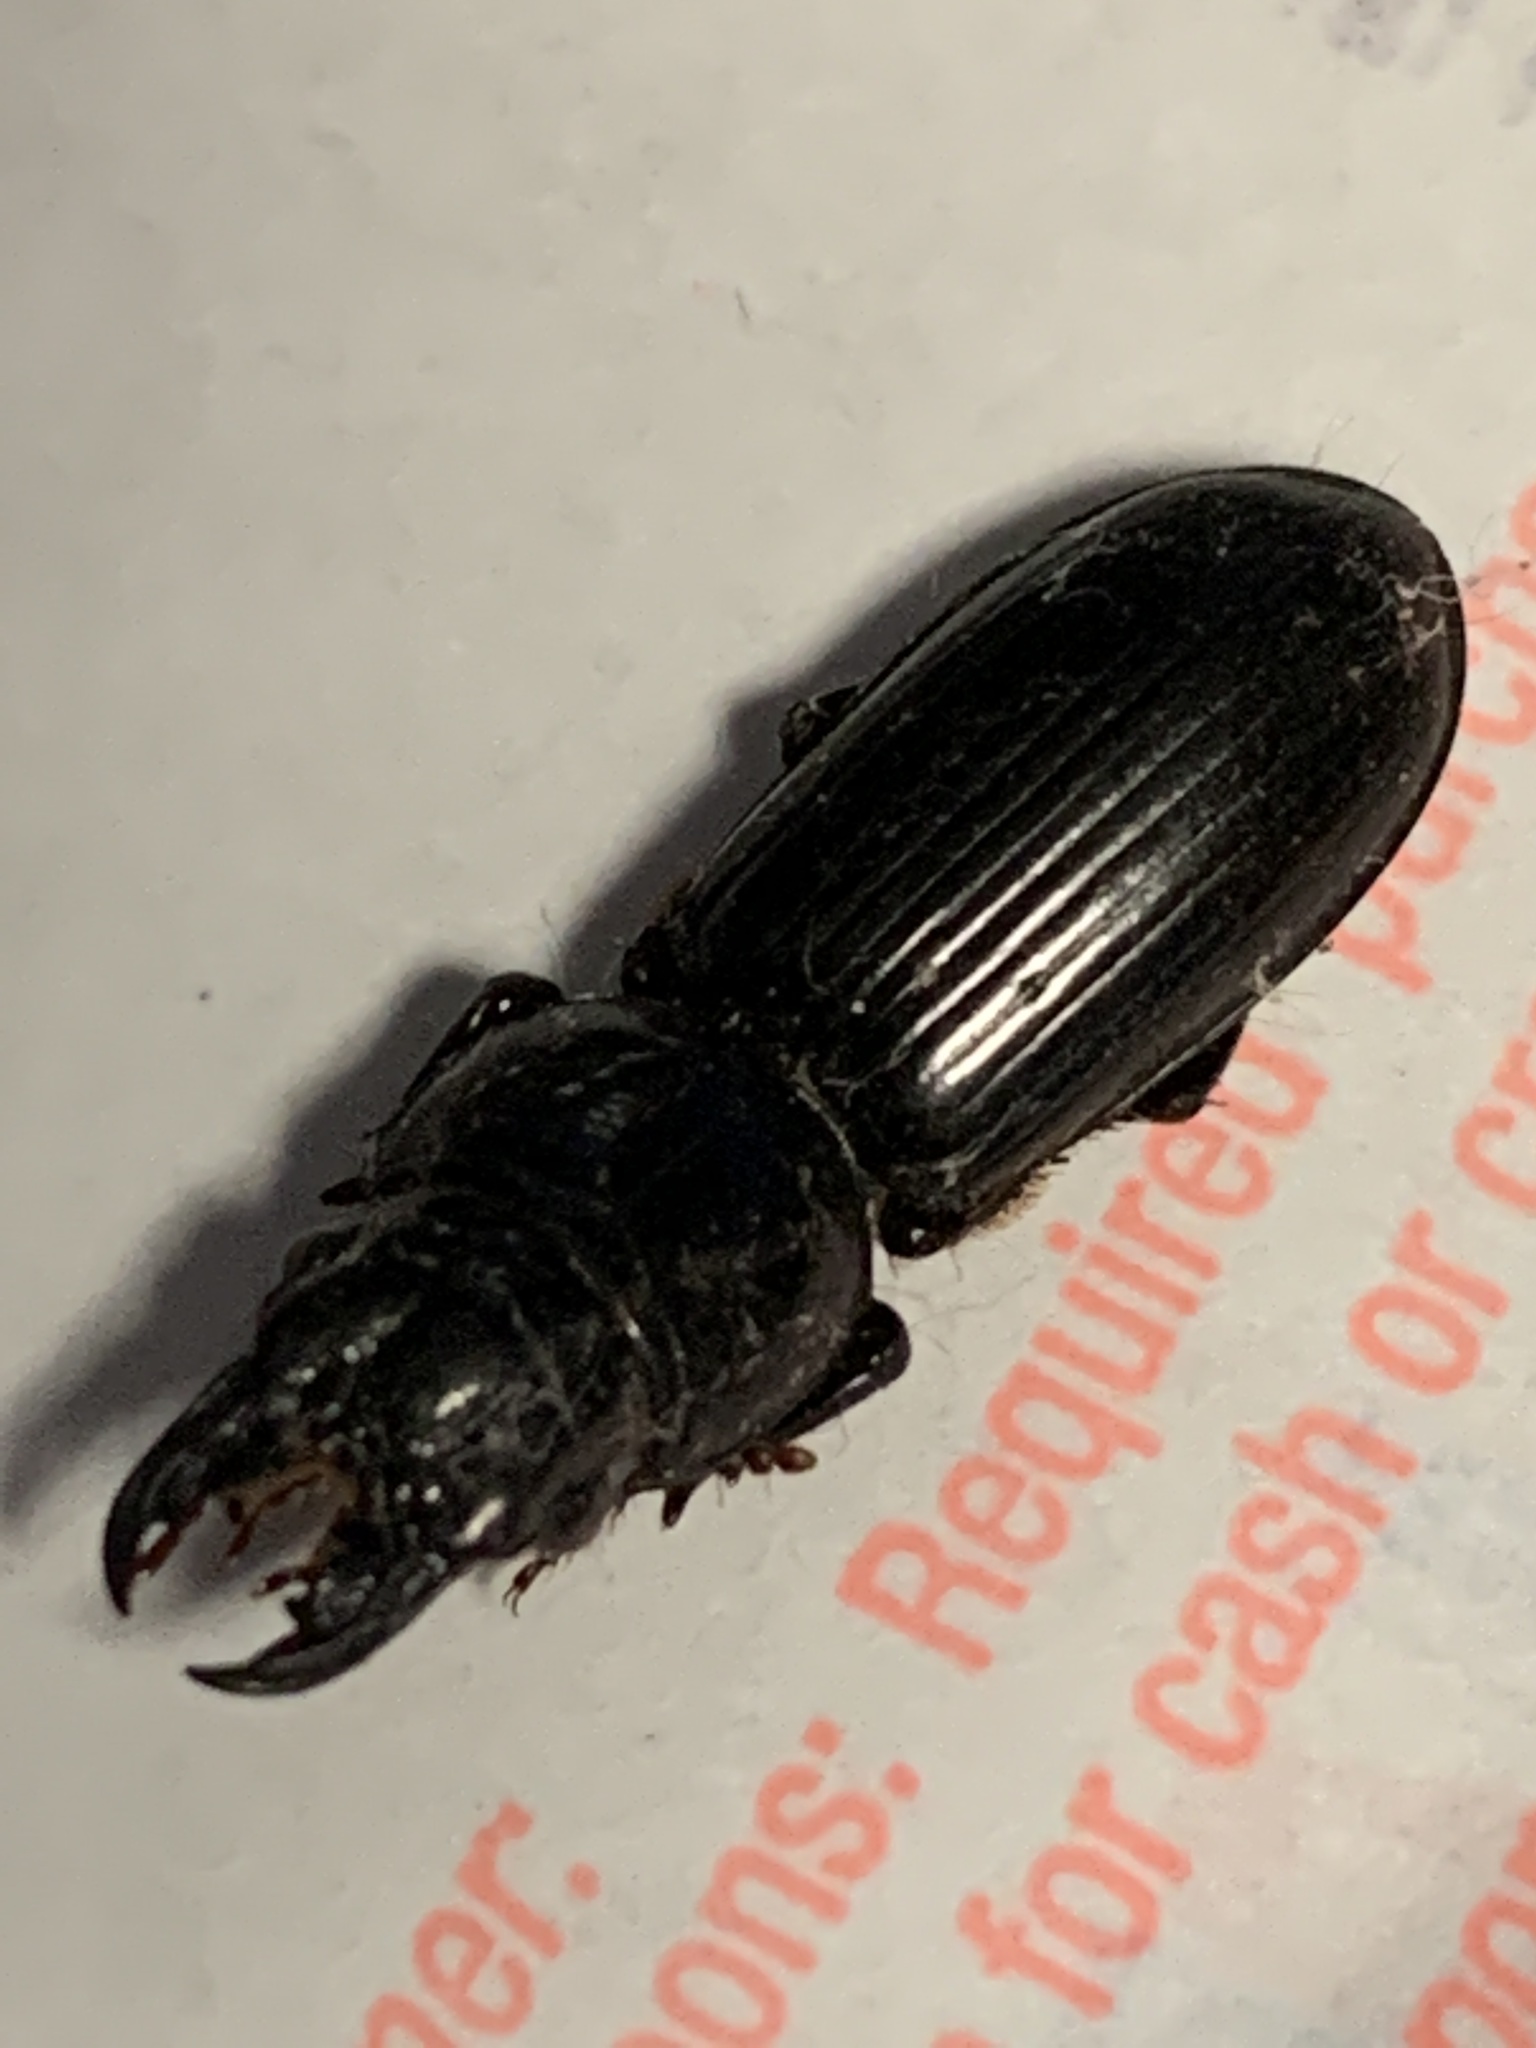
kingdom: Animalia
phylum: Arthropoda
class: Insecta
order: Coleoptera
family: Carabidae
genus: Scarites
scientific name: Scarites subterraneus
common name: Big-headed ground beetle
